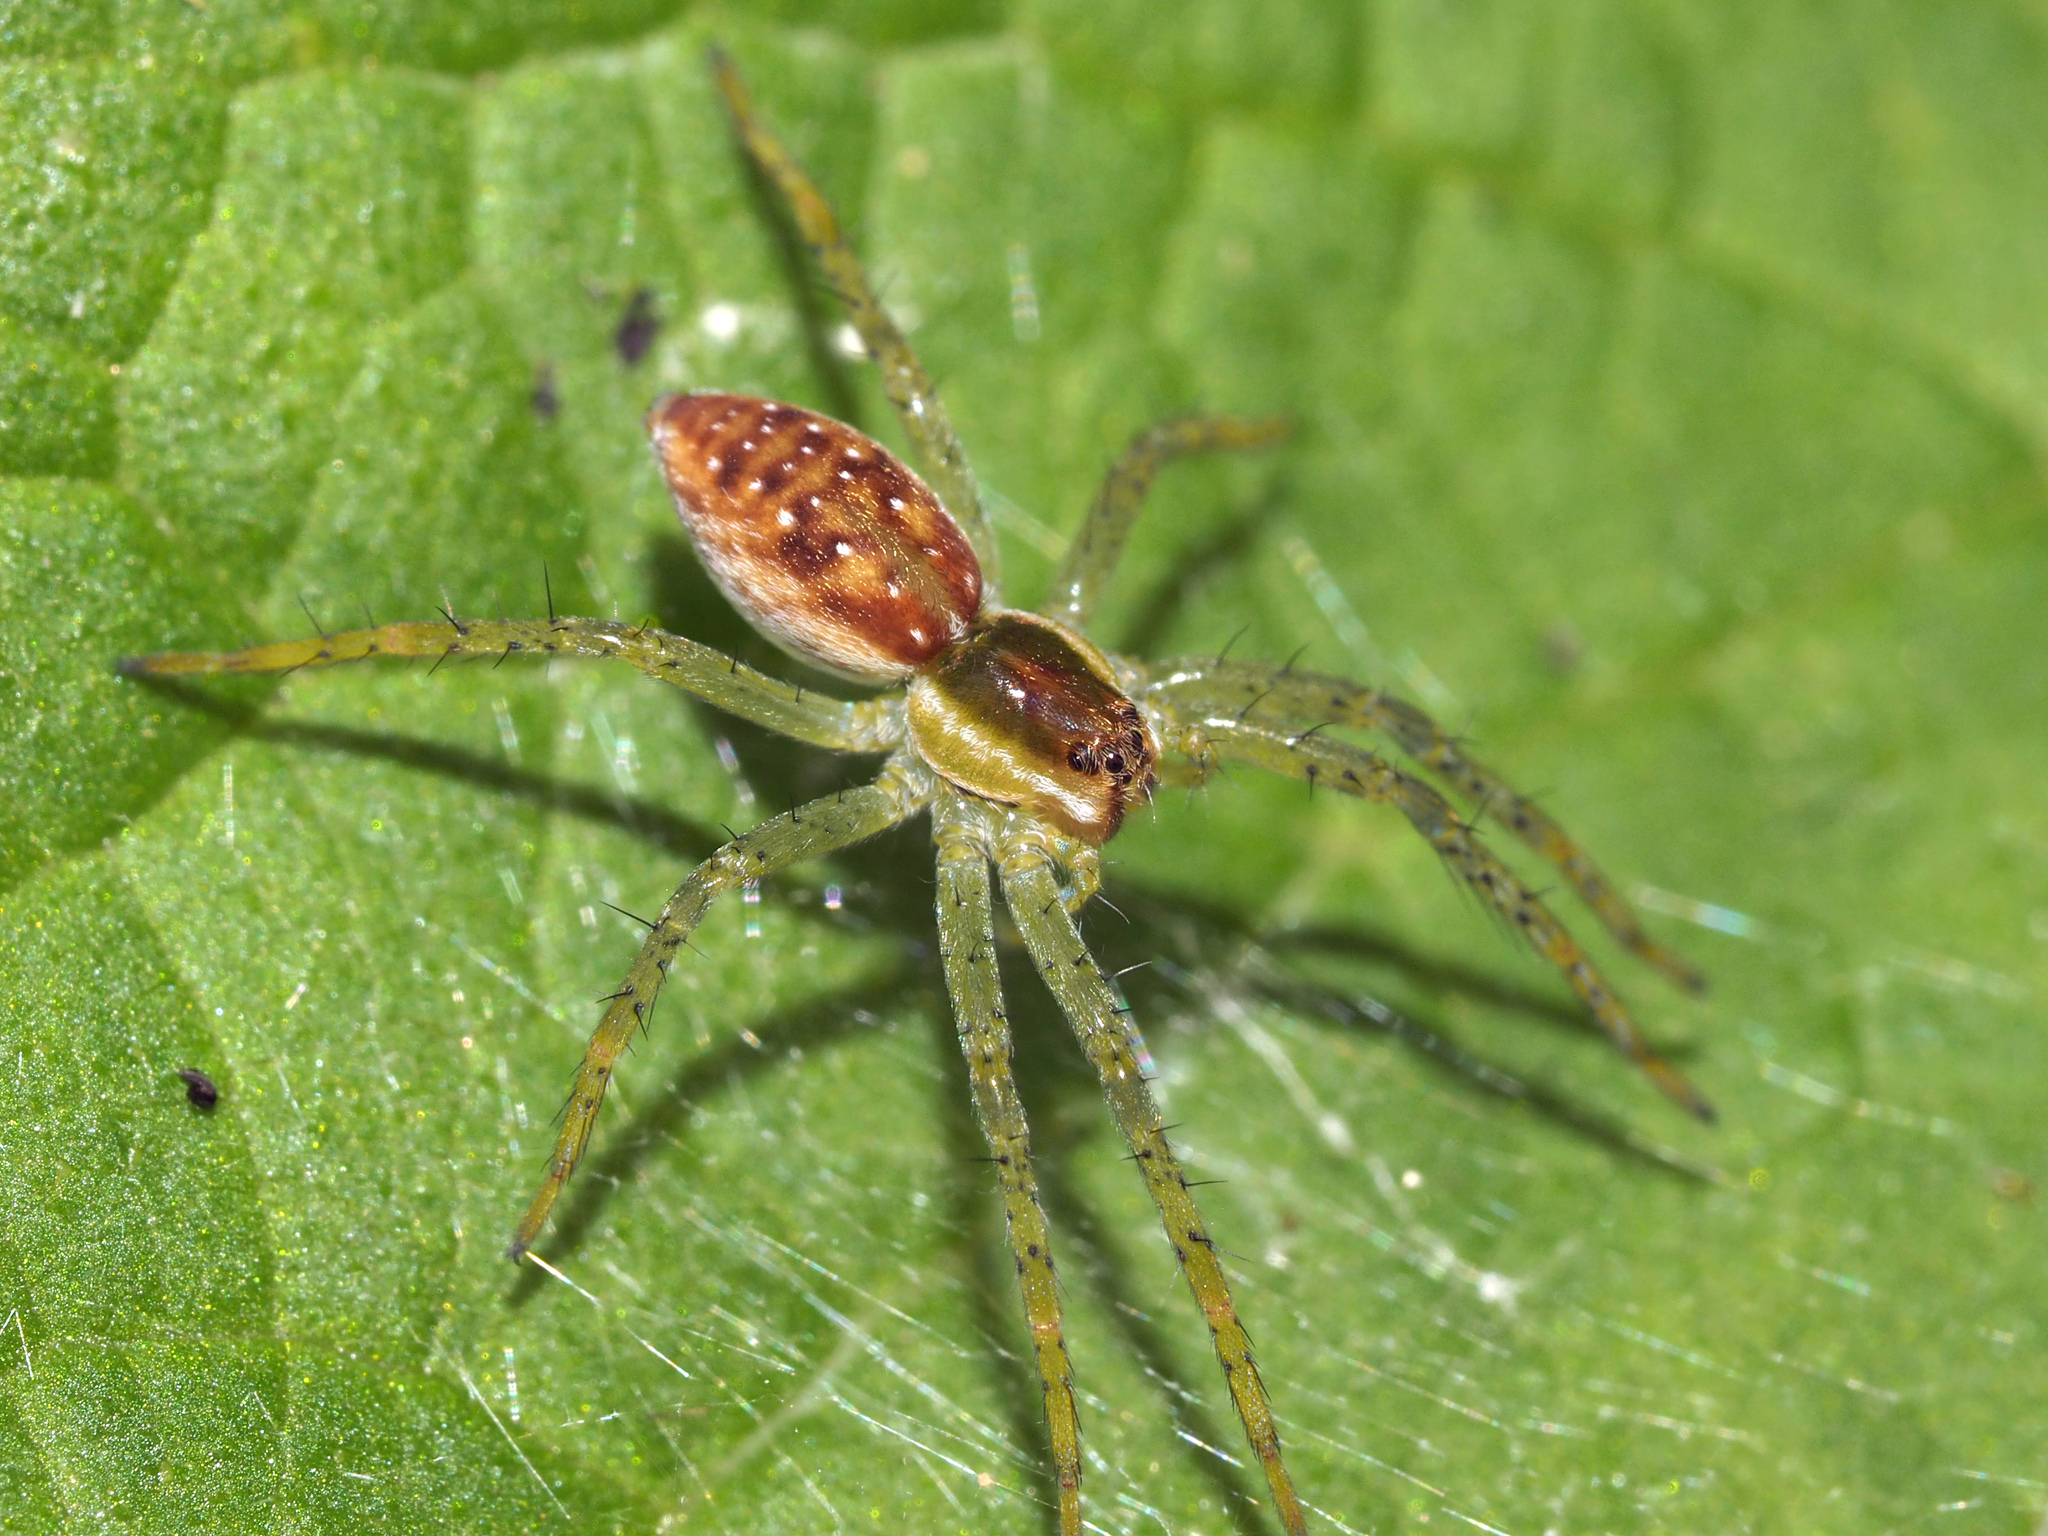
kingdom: Animalia
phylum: Arthropoda
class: Arachnida
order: Araneae
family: Pisauridae
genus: Dolomedes
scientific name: Dolomedes fimbriatus
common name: Raft spider
